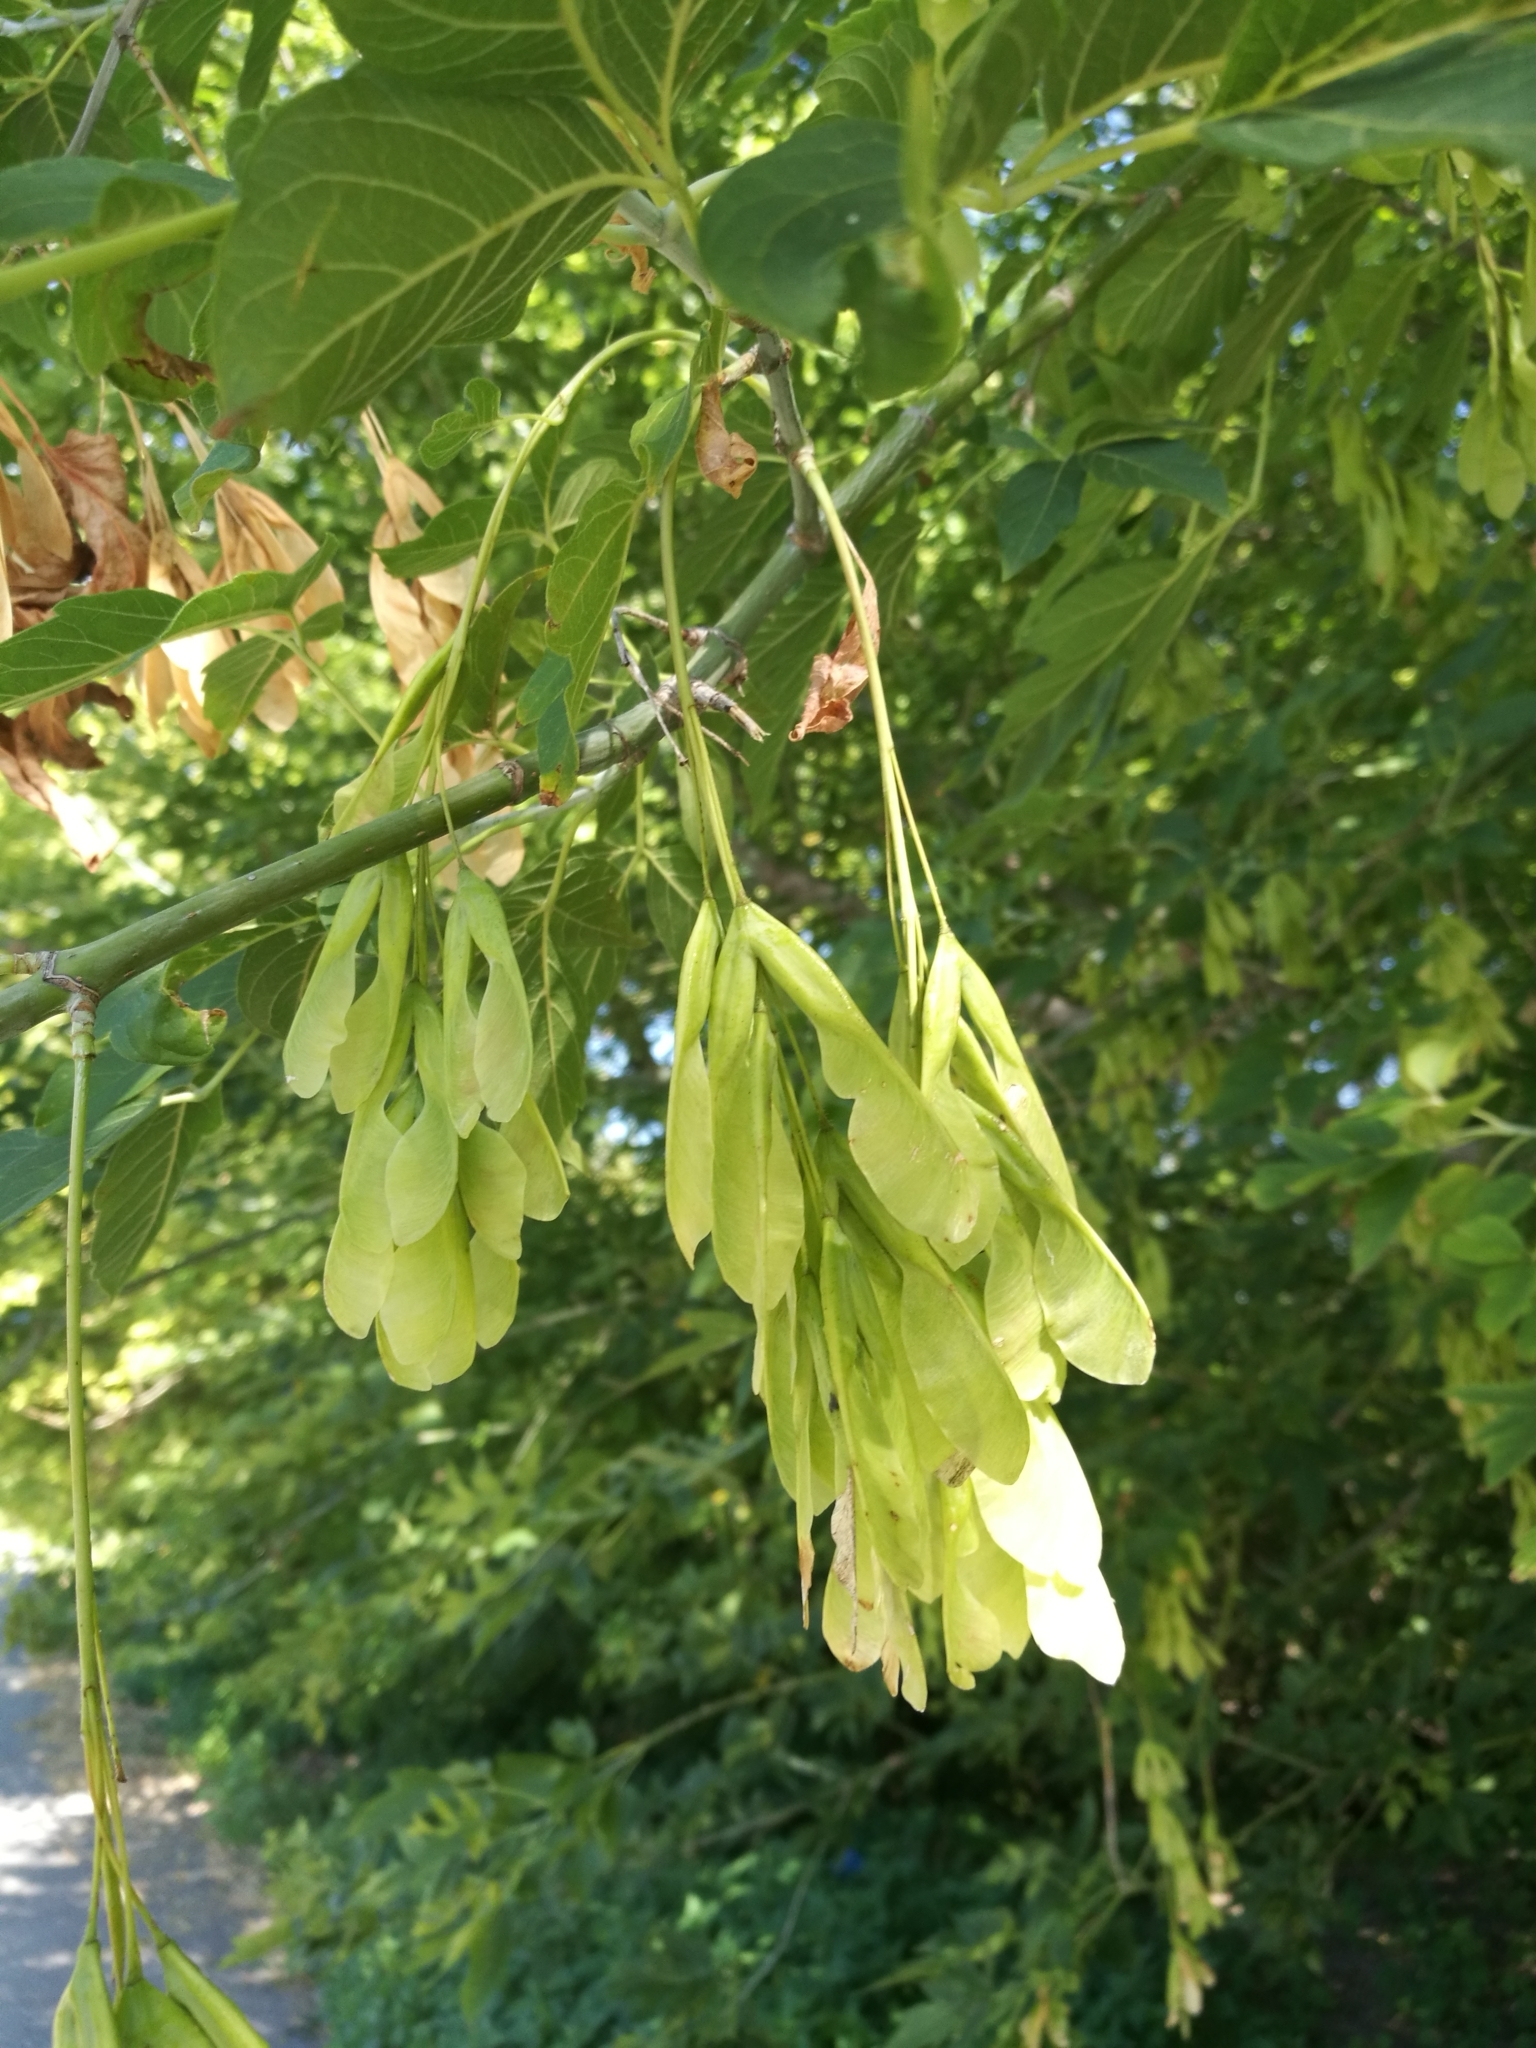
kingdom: Plantae
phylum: Tracheophyta
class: Magnoliopsida
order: Sapindales
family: Sapindaceae
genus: Acer
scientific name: Acer negundo
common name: Ashleaf maple
